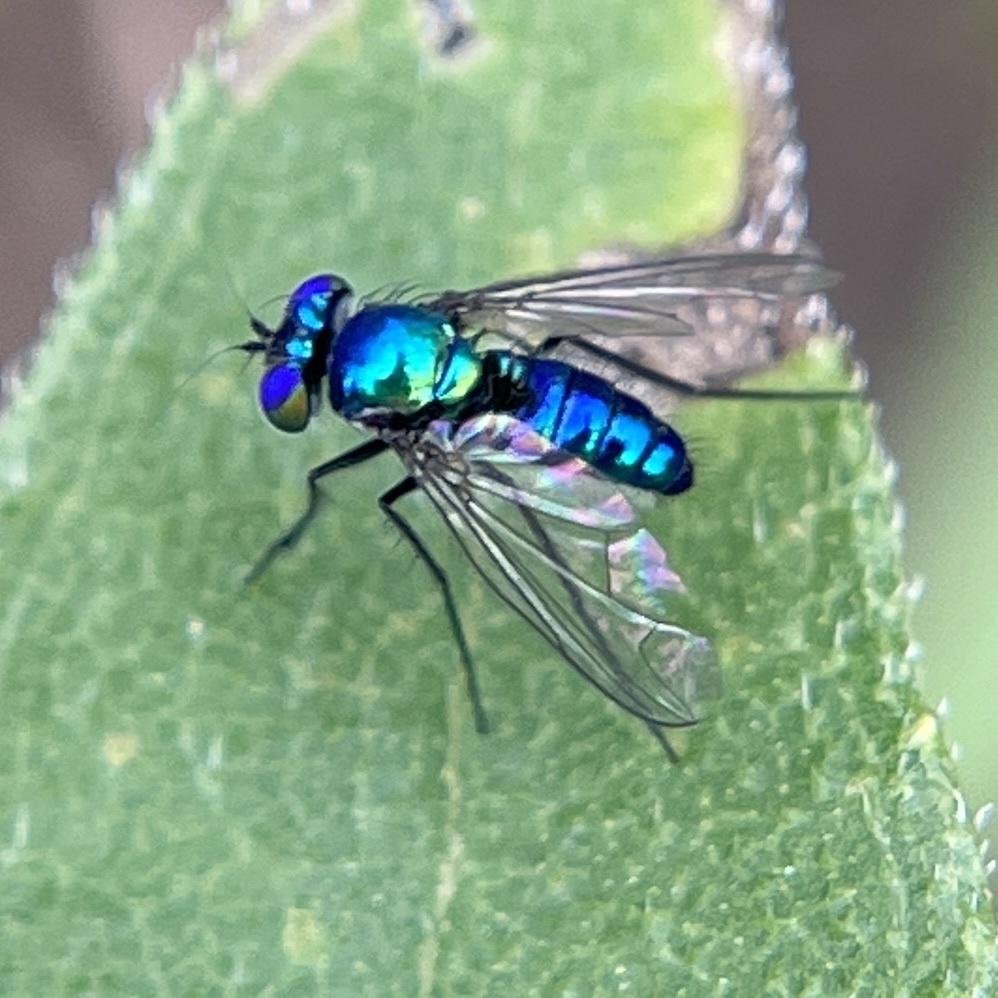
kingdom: Animalia
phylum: Arthropoda
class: Insecta
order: Diptera
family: Dolichopodidae
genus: Condylostylus
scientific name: Condylostylus mundus
